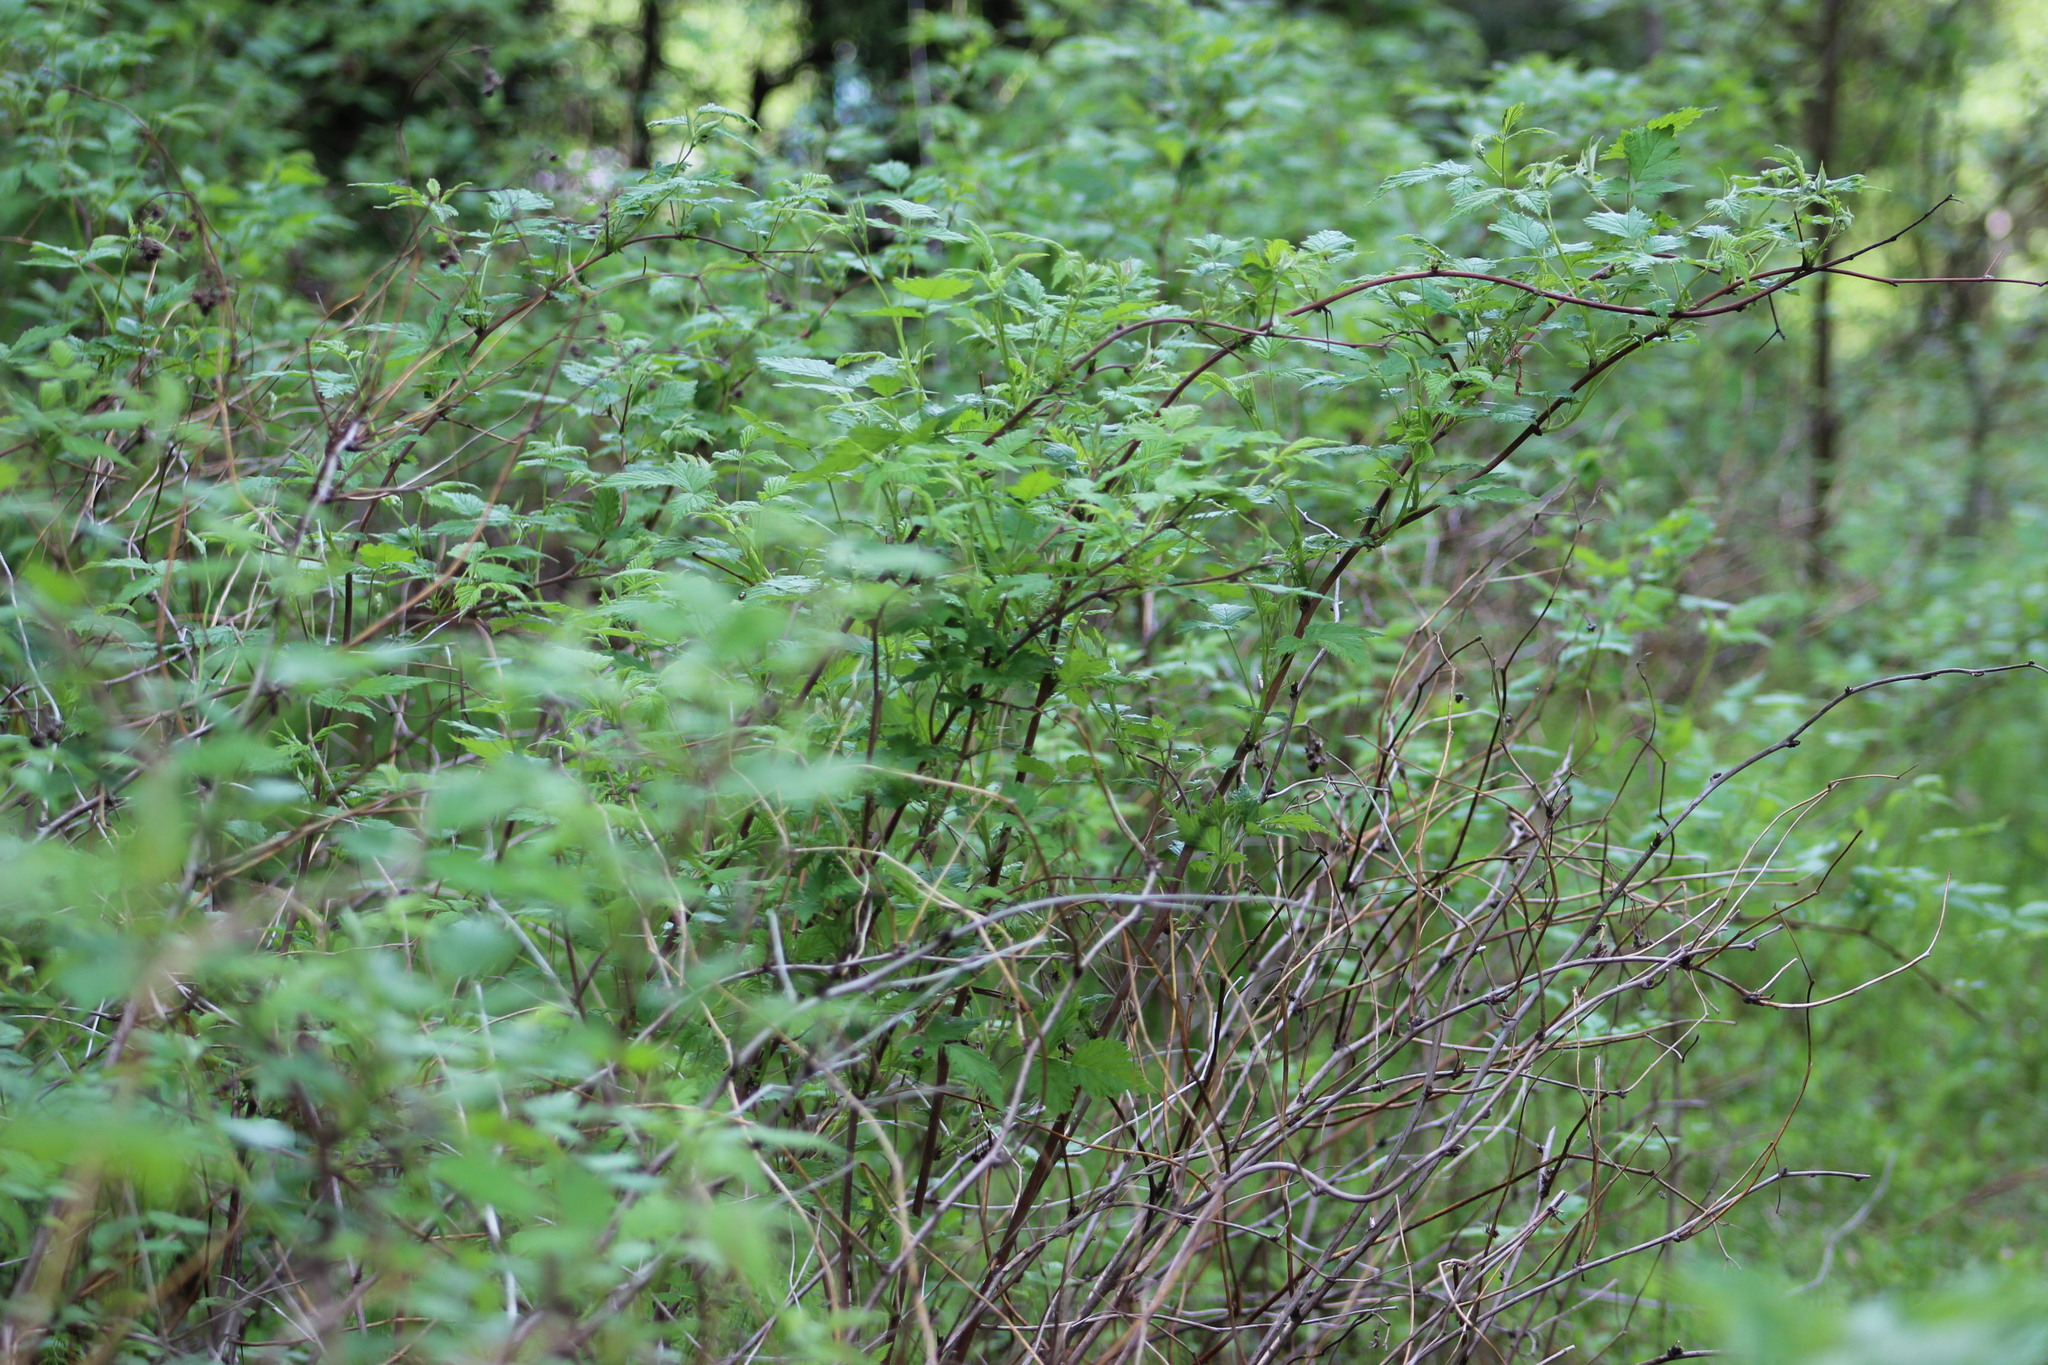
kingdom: Plantae
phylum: Tracheophyta
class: Magnoliopsida
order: Rosales
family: Rosaceae
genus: Rubus
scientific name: Rubus idaeus
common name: Raspberry
